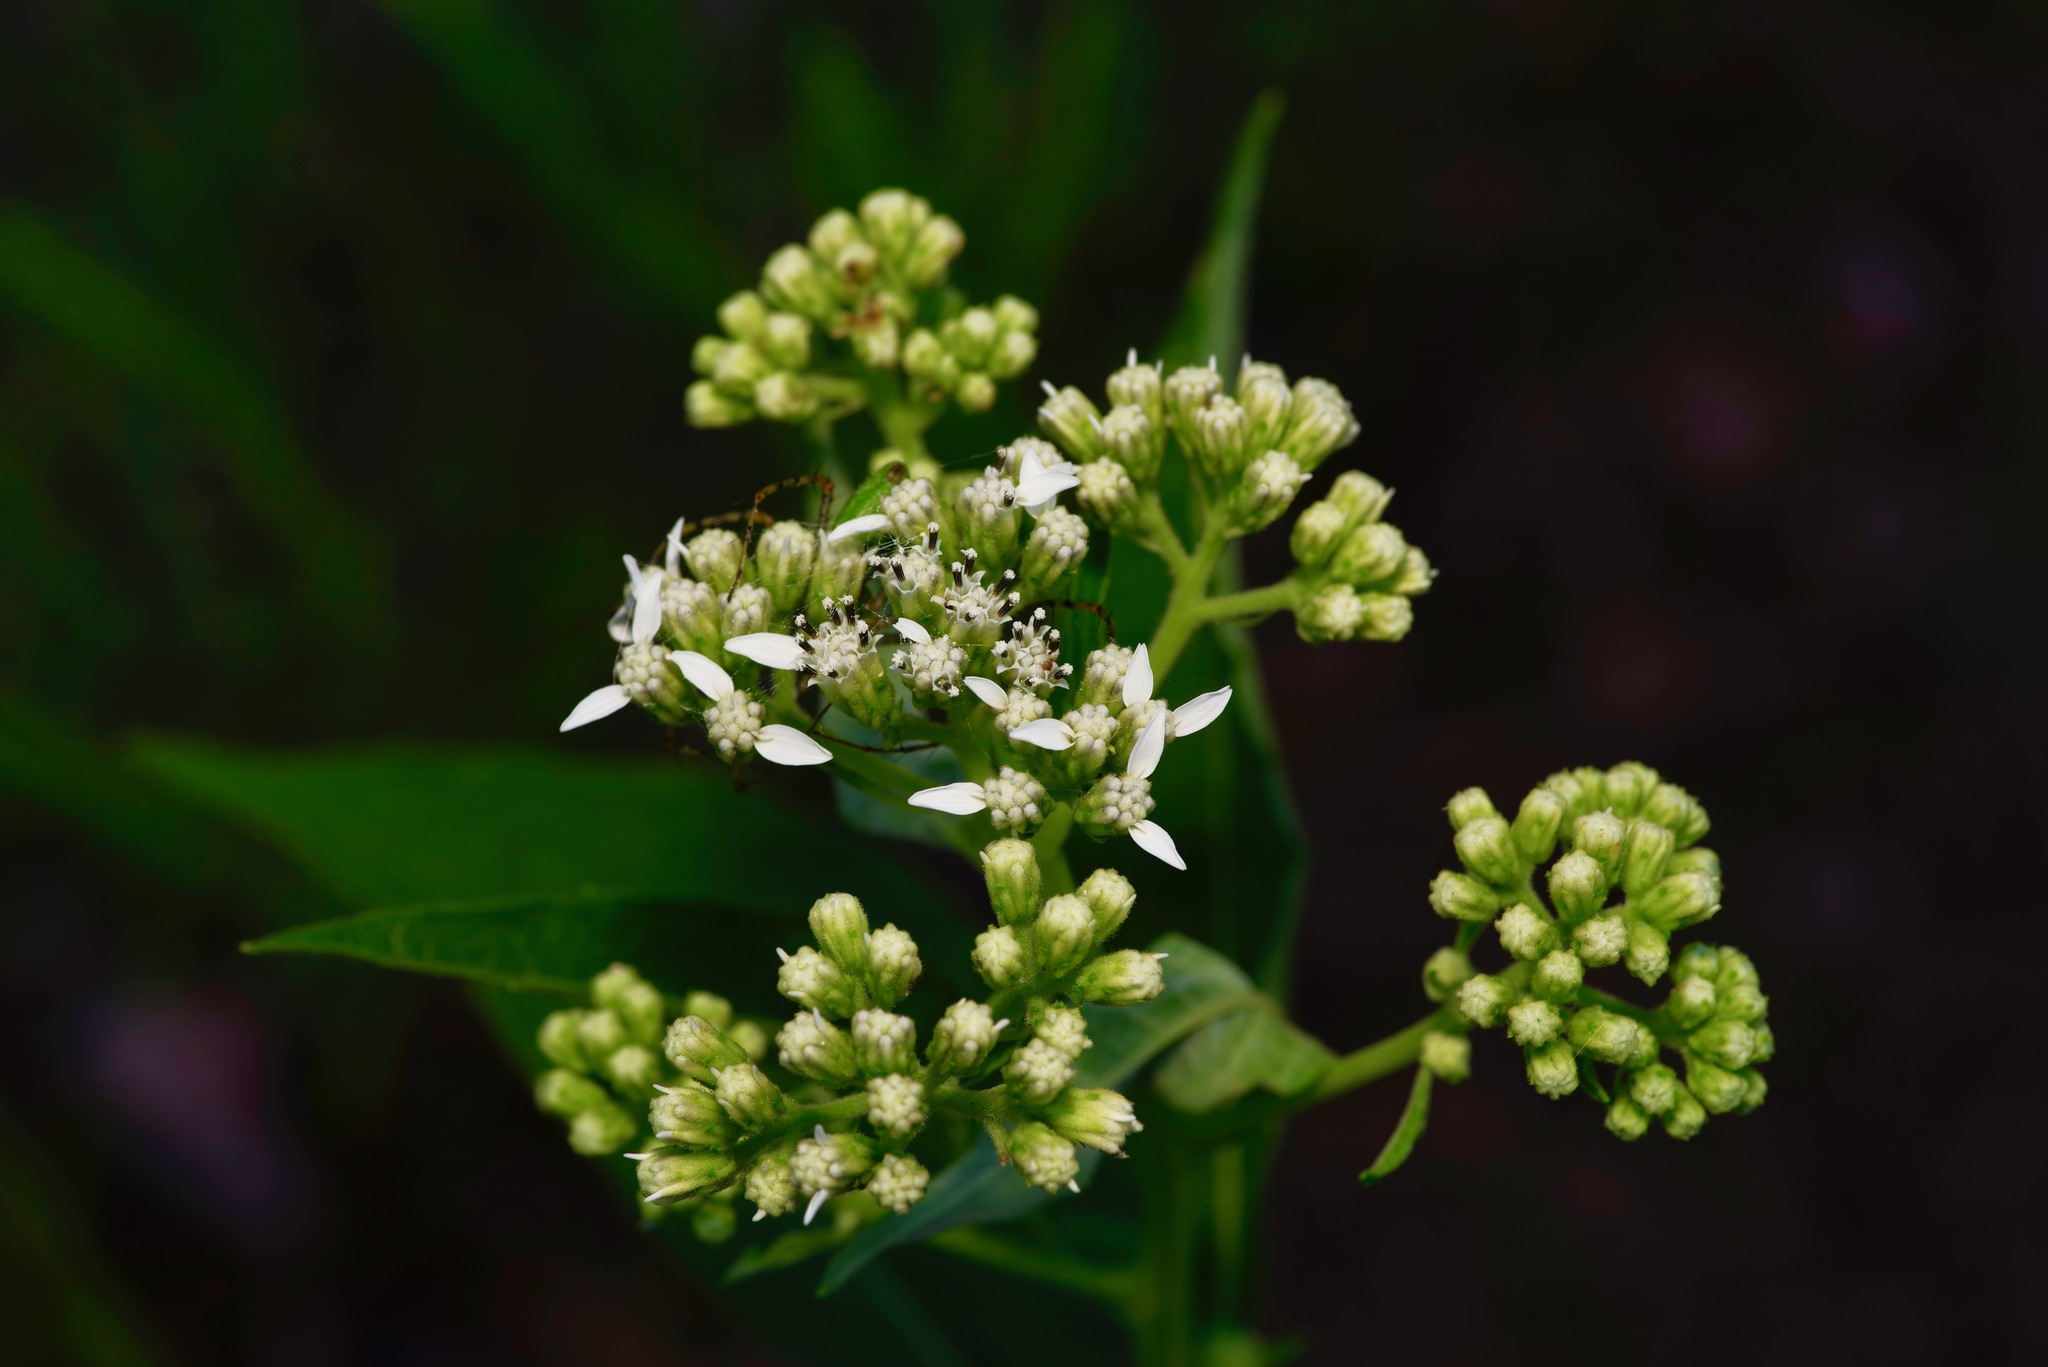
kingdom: Plantae
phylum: Tracheophyta
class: Magnoliopsida
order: Asterales
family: Asteraceae
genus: Verbesina
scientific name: Verbesina virginica
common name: Frostweed
